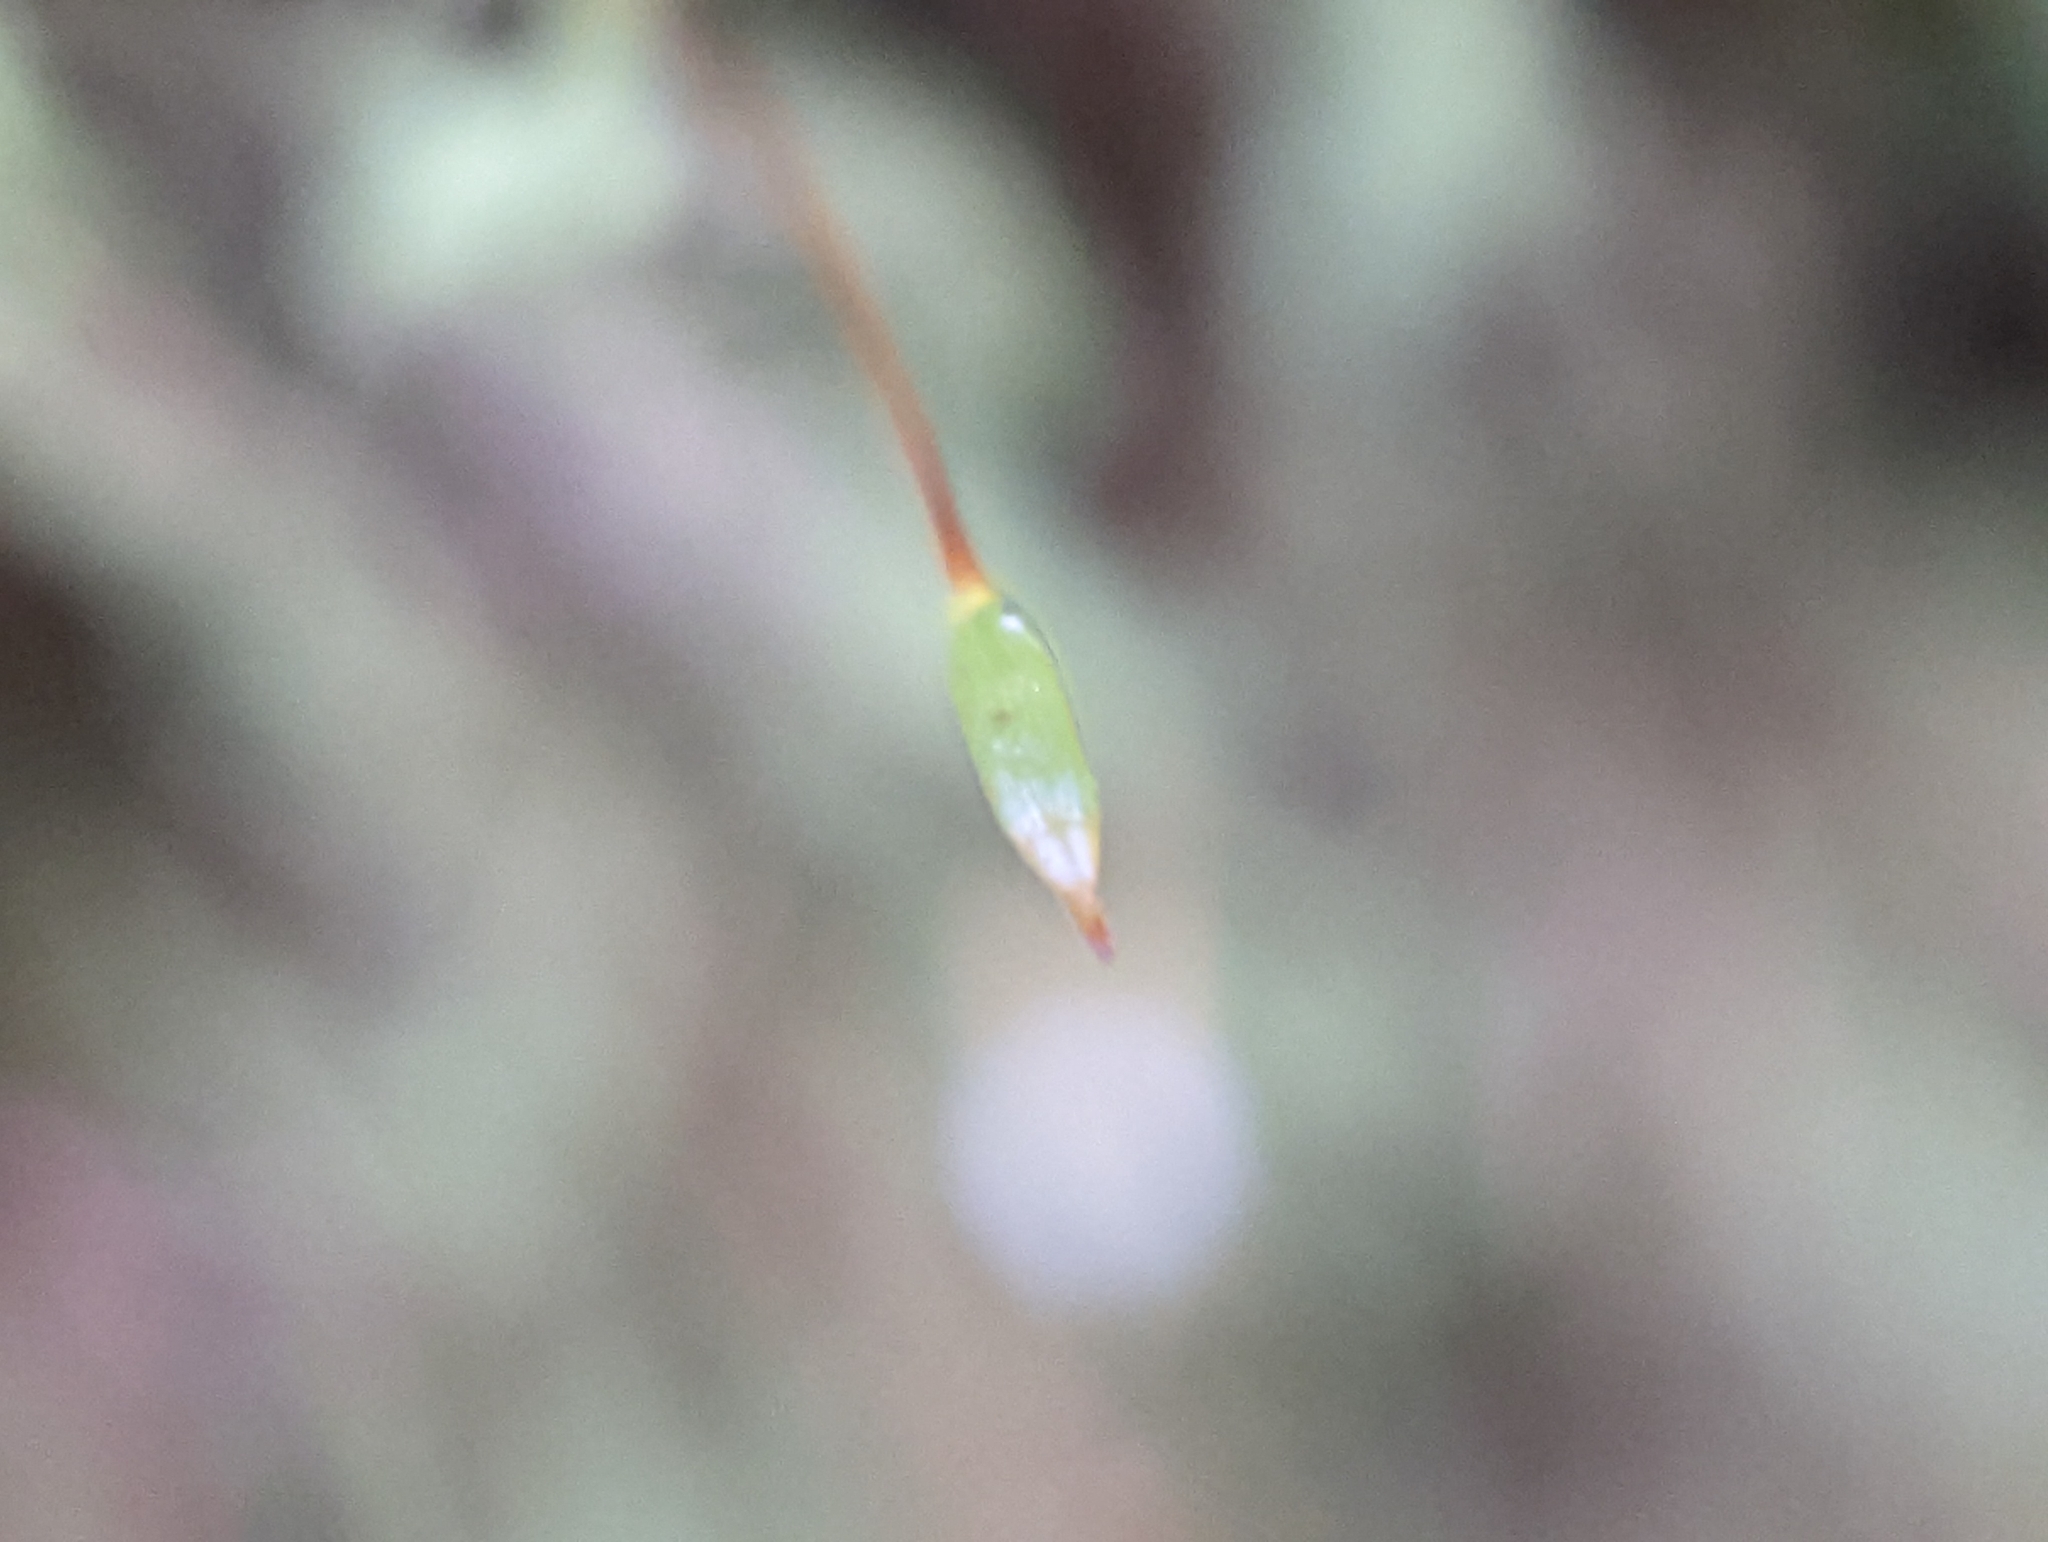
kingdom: Plantae
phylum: Bryophyta
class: Bryopsida
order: Hypnales
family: Neckeraceae
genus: Pseudanomodon
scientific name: Pseudanomodon attenuatus
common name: Tree-skirt moss
